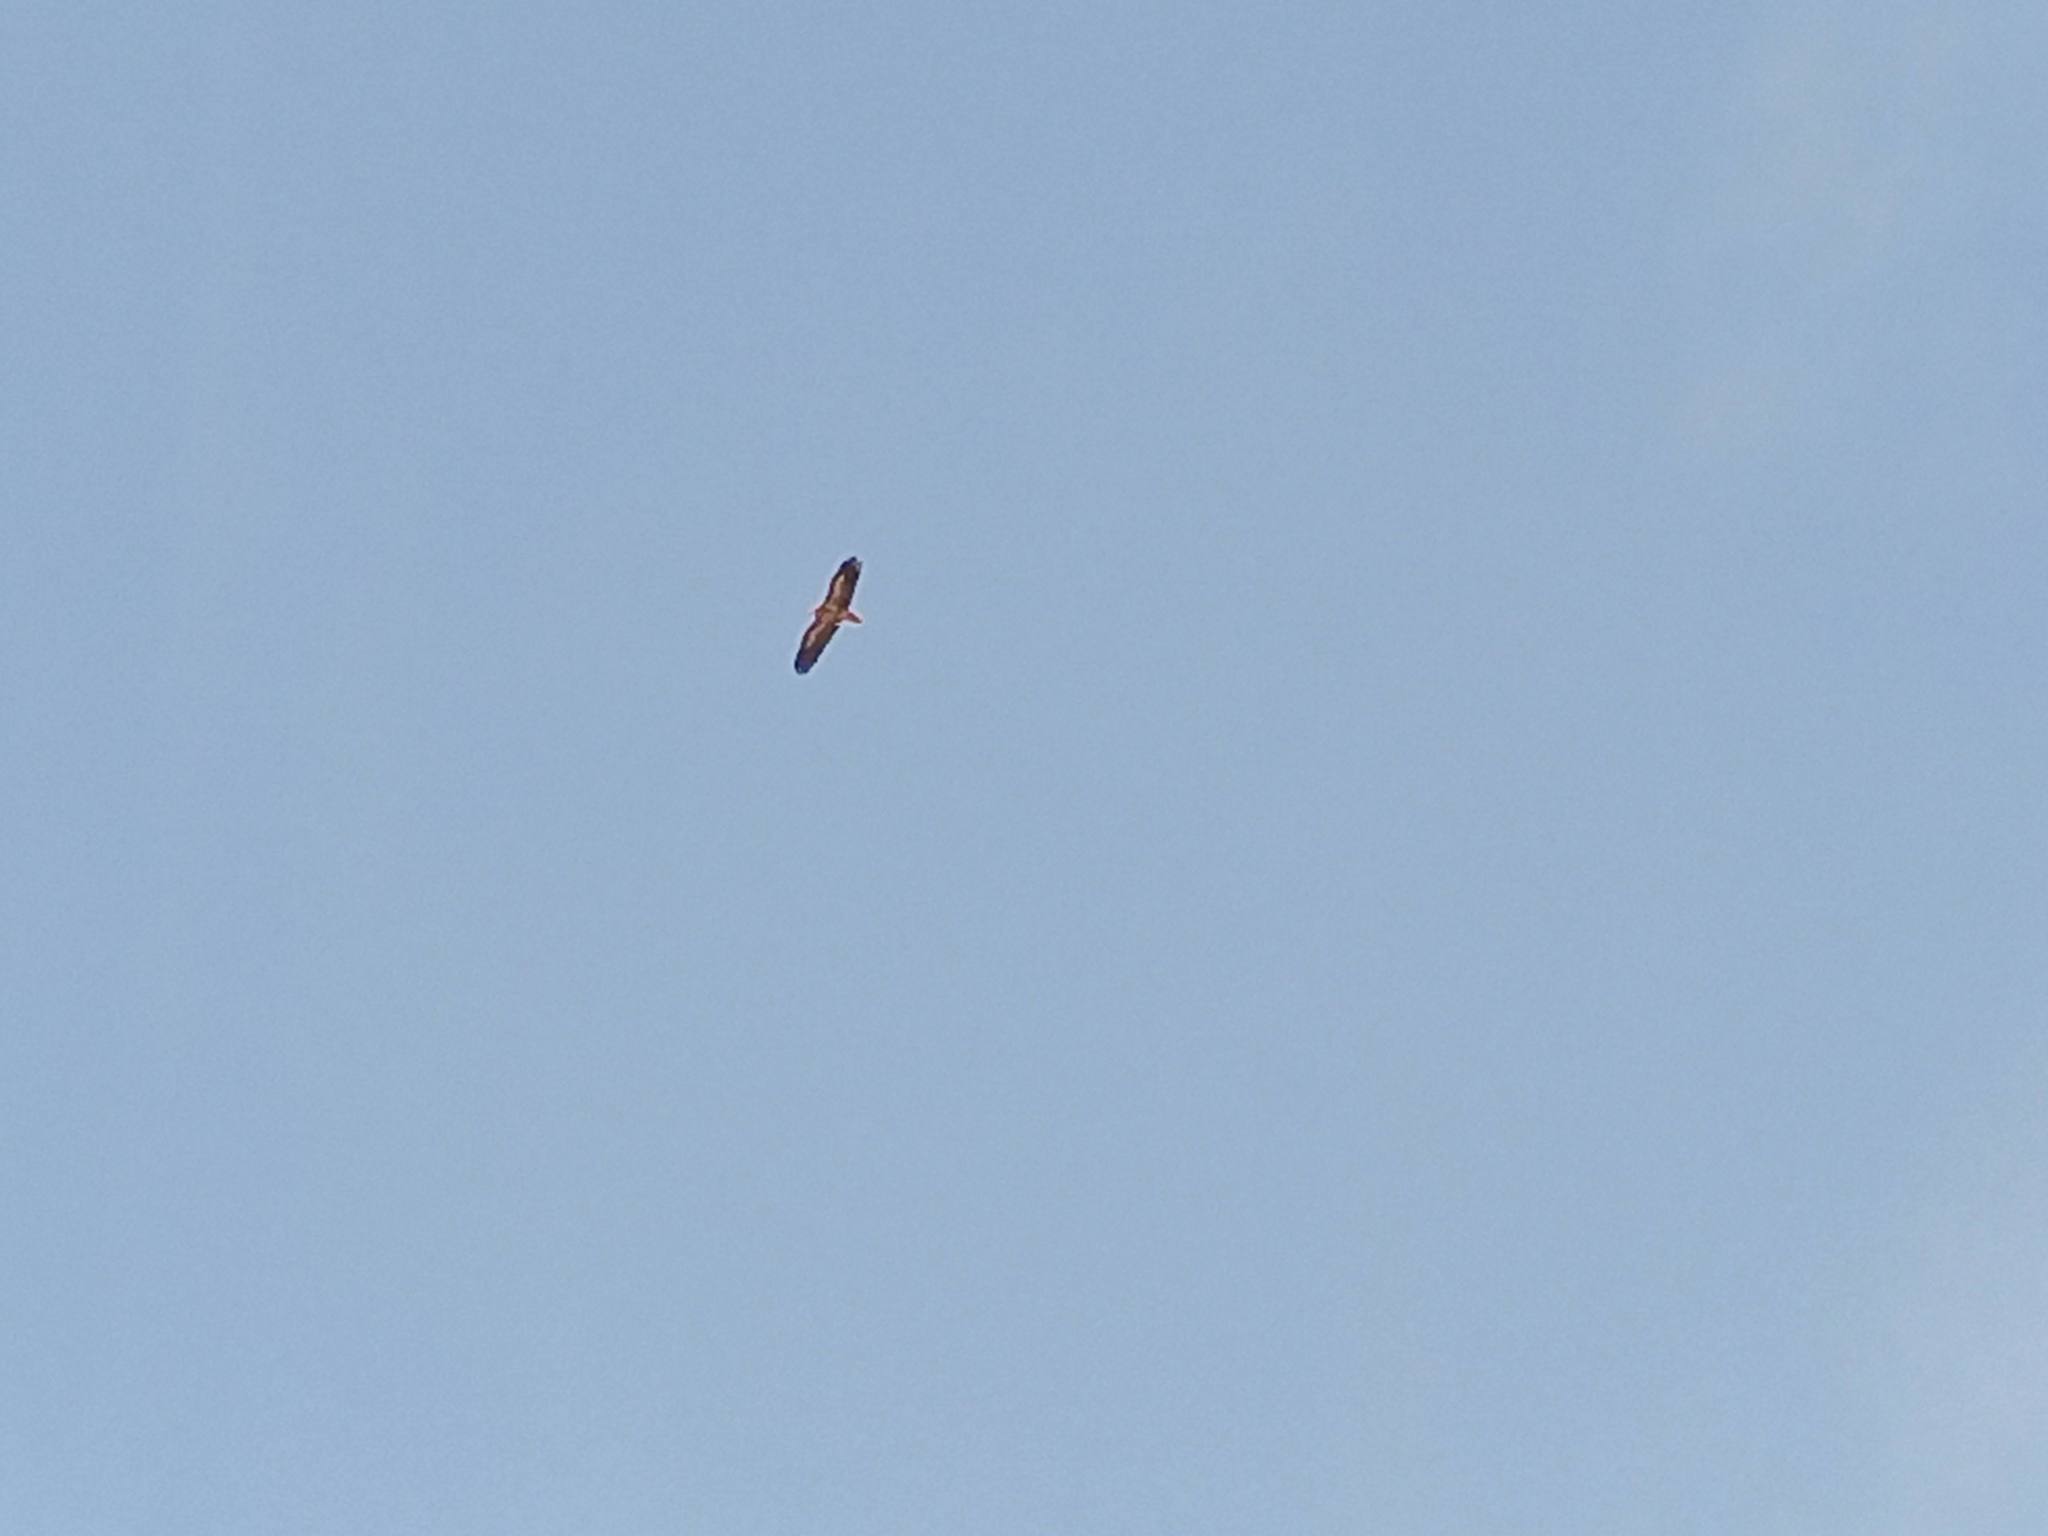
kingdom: Animalia
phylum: Chordata
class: Aves
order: Accipitriformes
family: Accipitridae
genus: Neophron
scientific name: Neophron percnopterus
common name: Egyptian vulture
